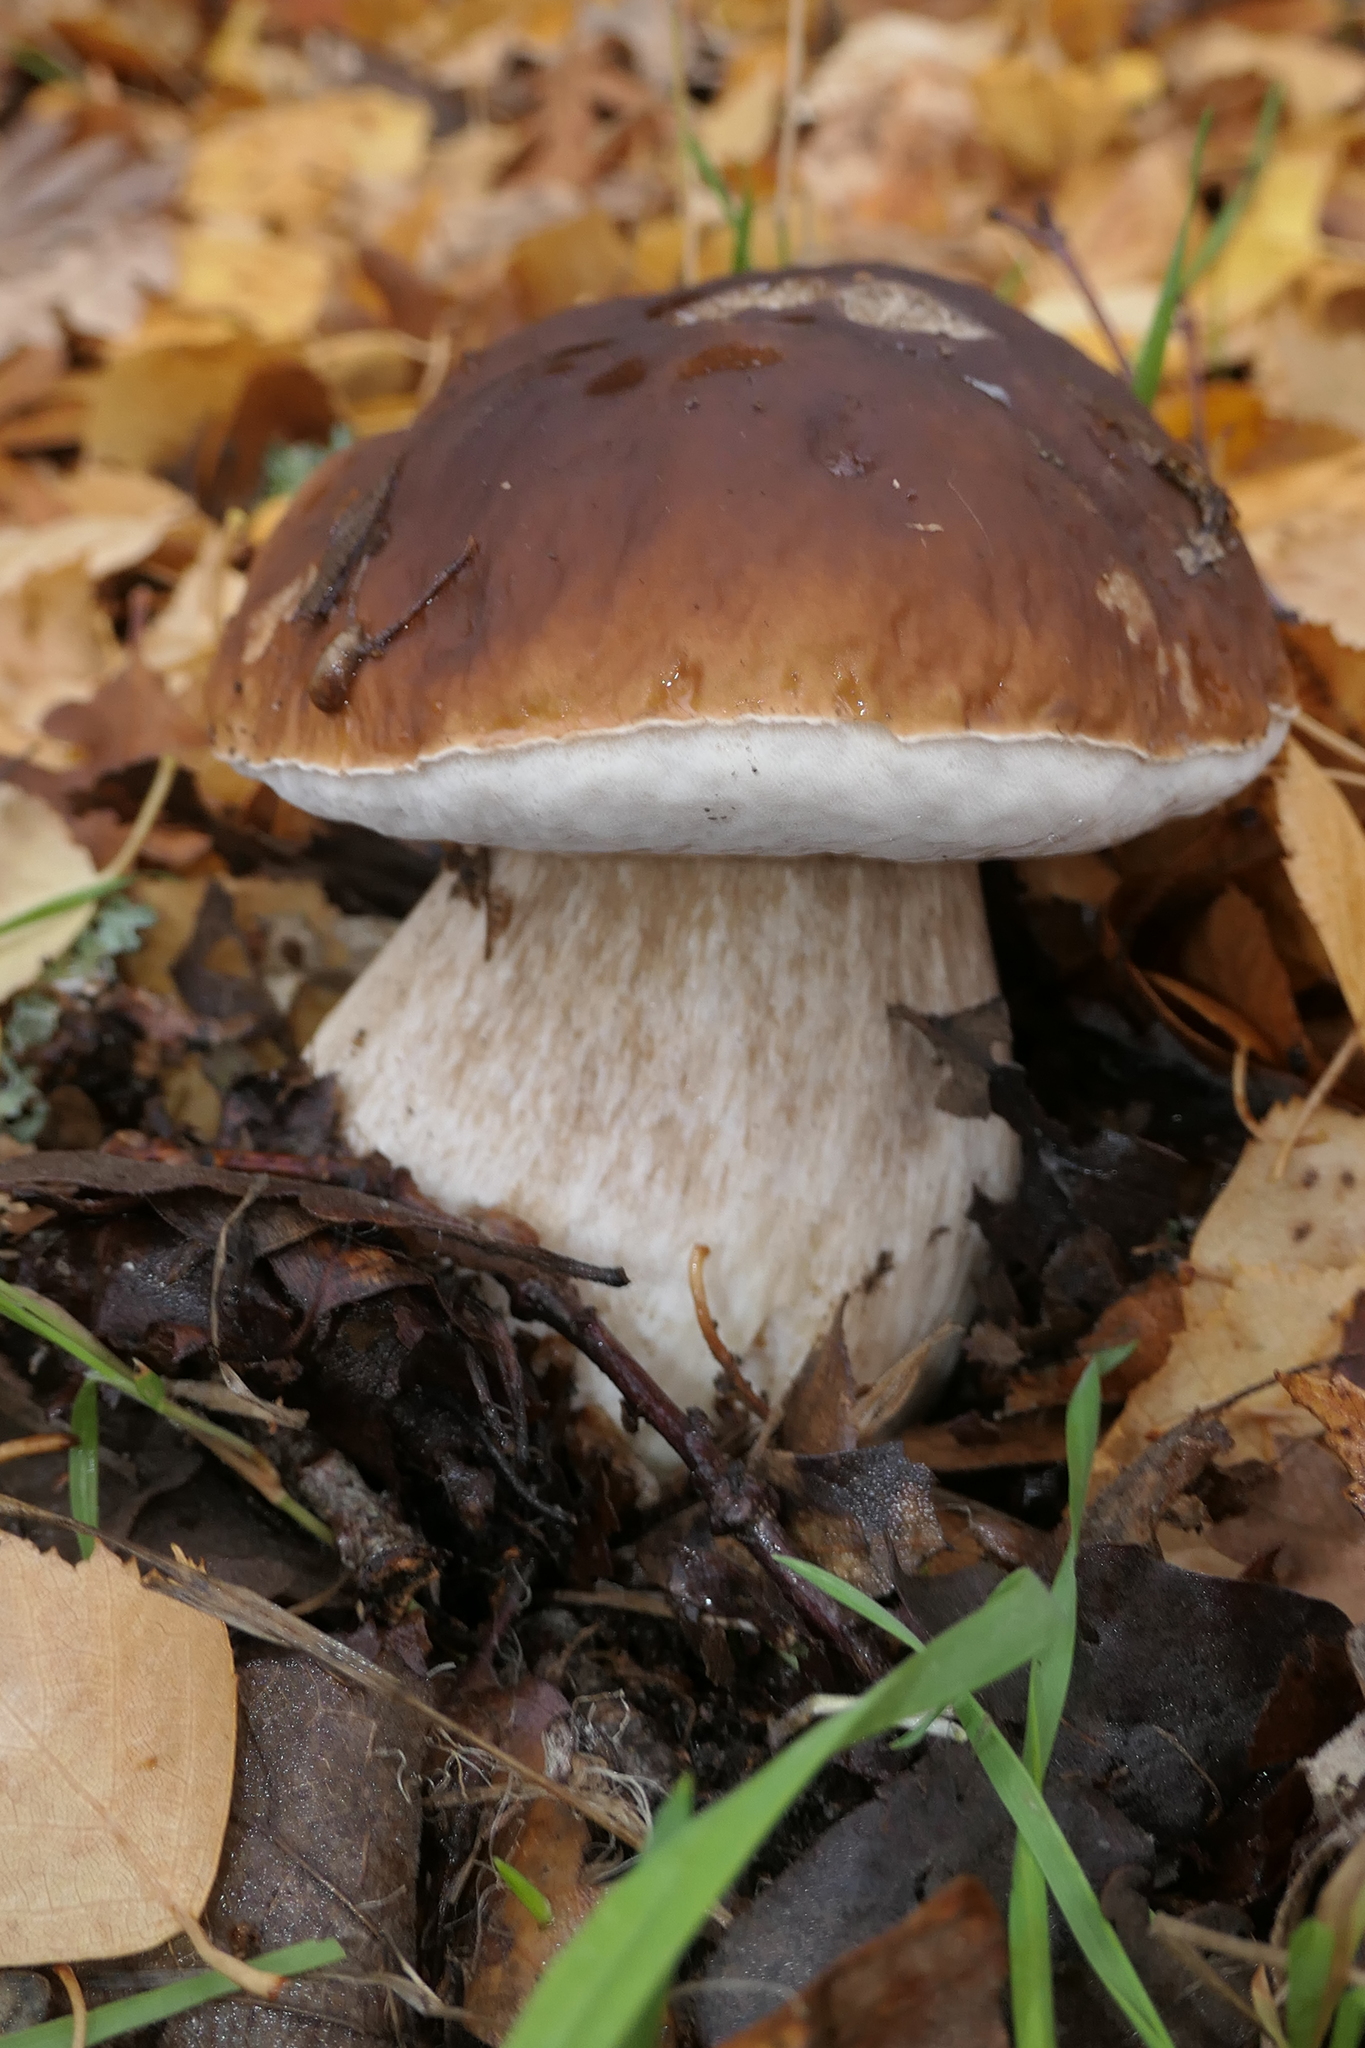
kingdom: Fungi
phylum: Basidiomycota
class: Agaricomycetes
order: Boletales
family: Boletaceae
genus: Boletus
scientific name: Boletus edulis
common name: Cep
